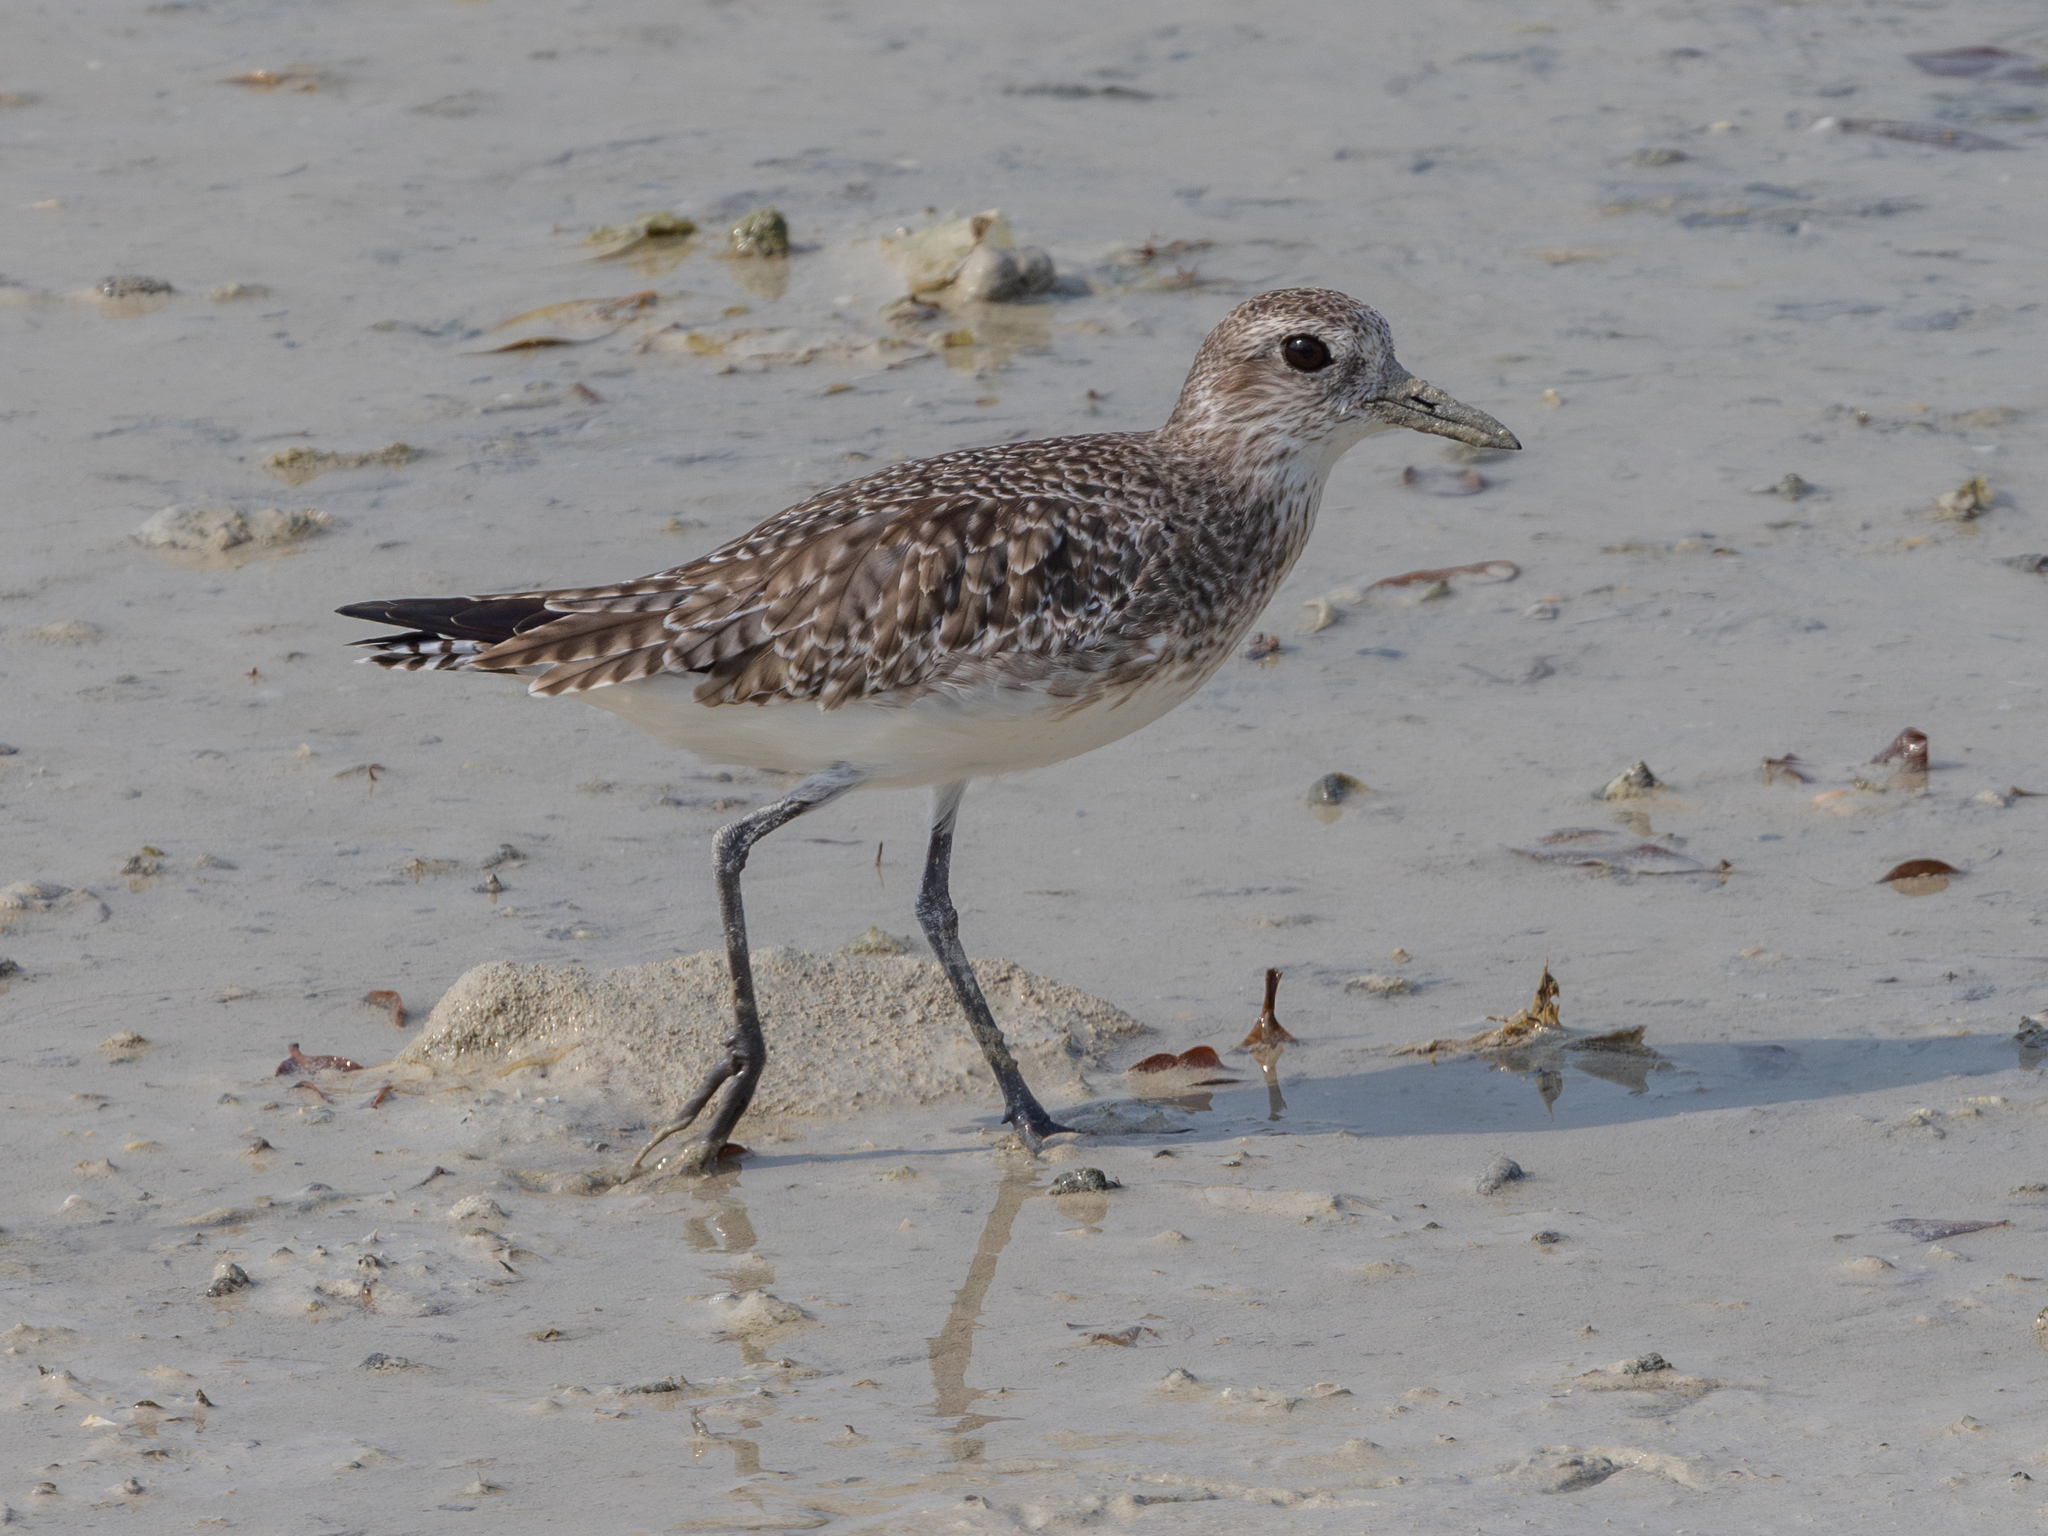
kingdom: Animalia
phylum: Chordata
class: Aves
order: Charadriiformes
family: Charadriidae
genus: Pluvialis
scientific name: Pluvialis squatarola
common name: Grey plover
